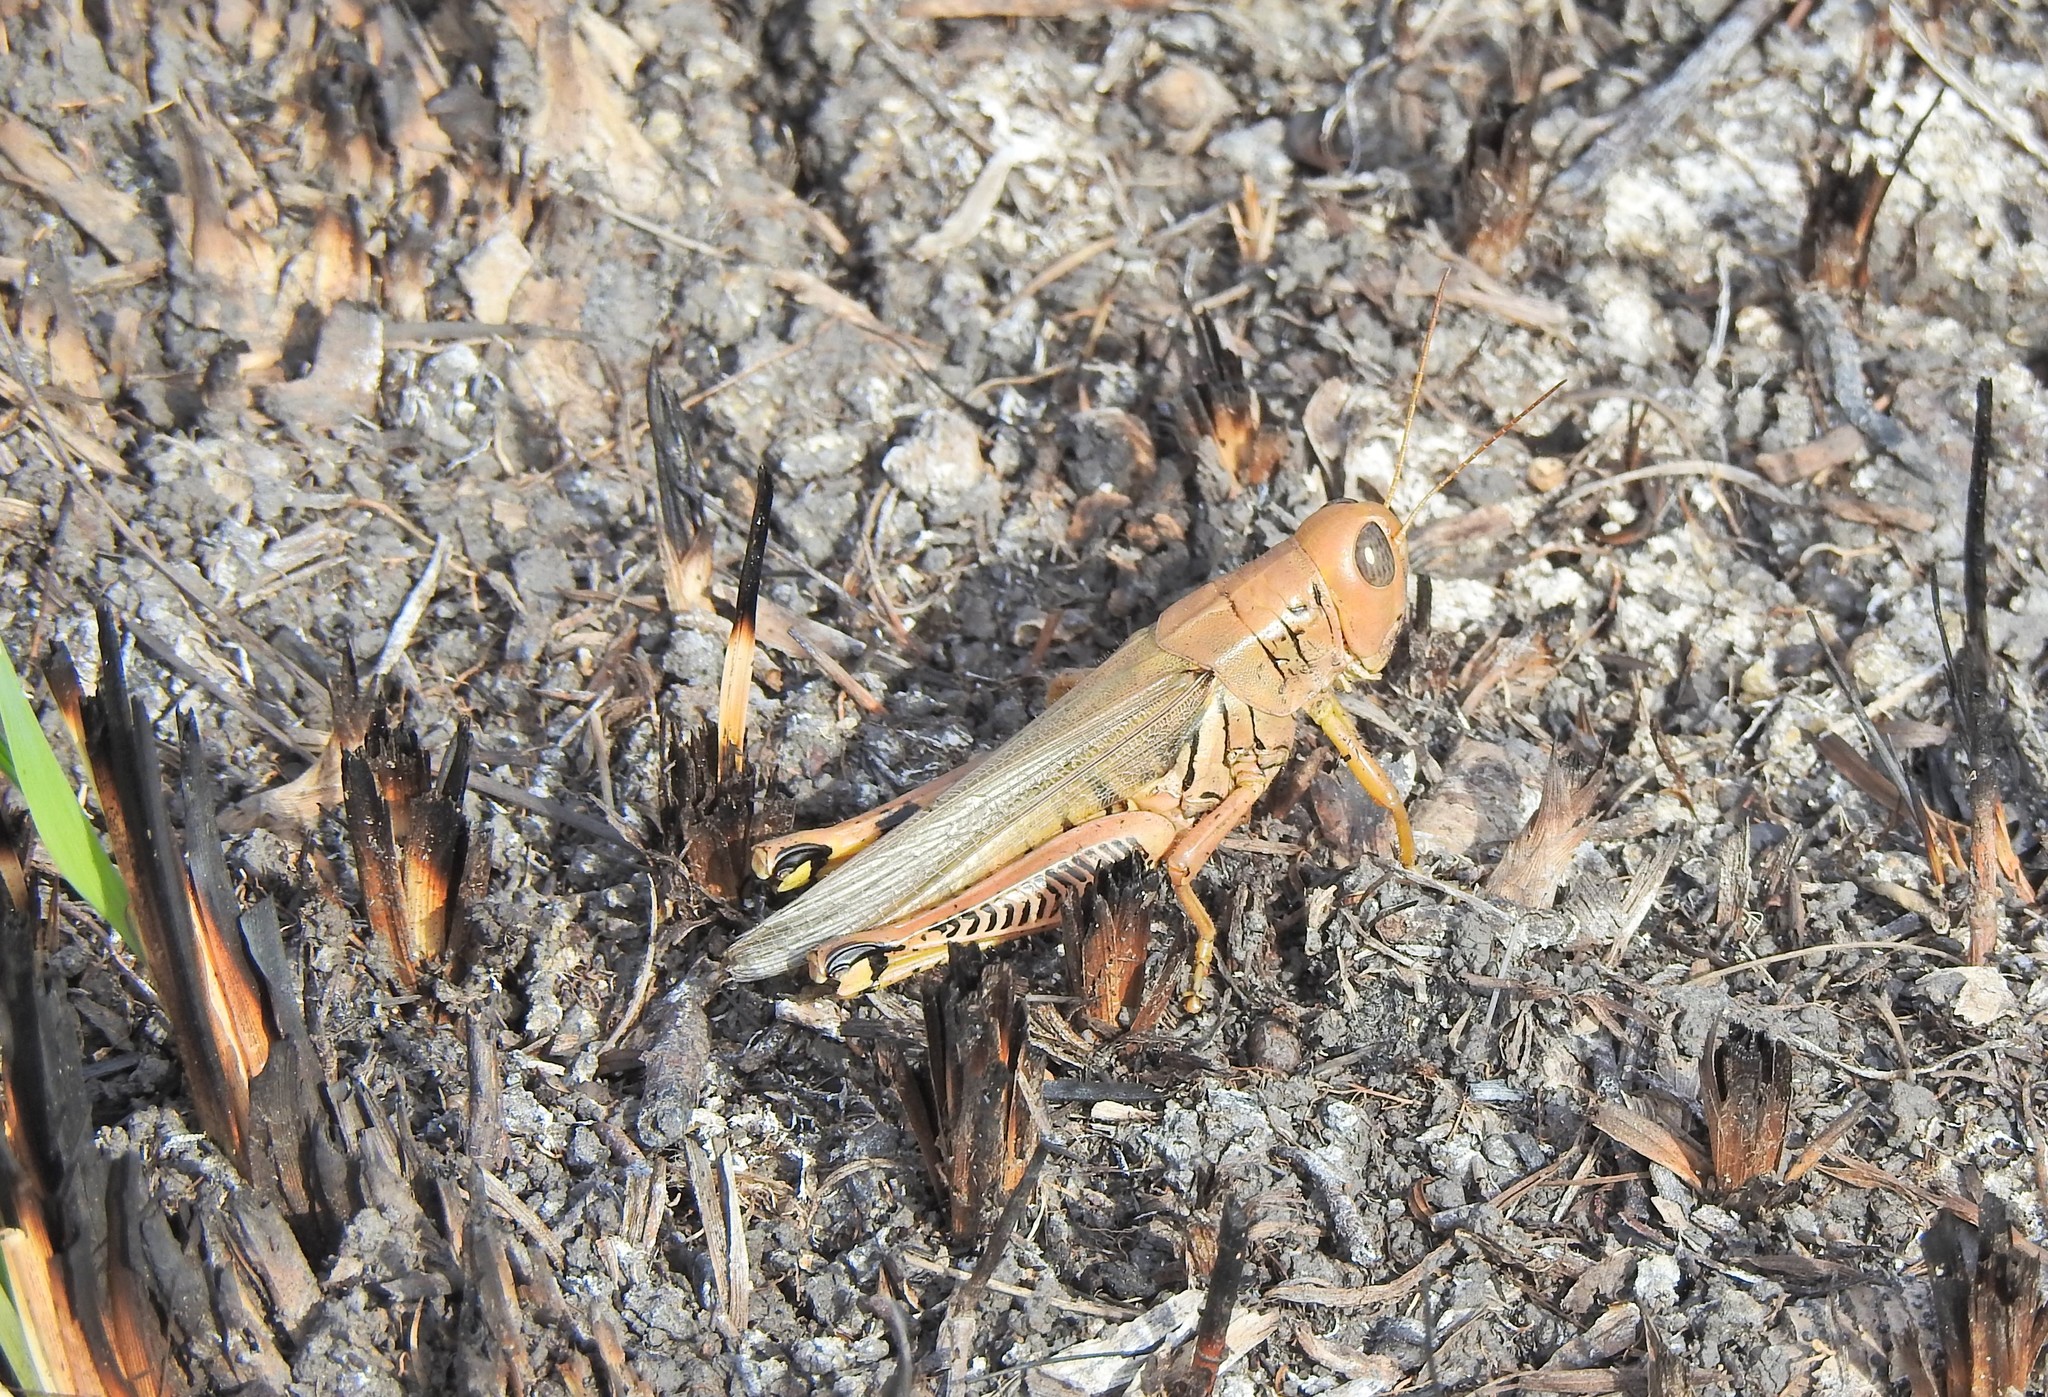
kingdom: Animalia
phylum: Arthropoda
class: Insecta
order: Orthoptera
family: Acrididae
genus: Melanoplus
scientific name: Melanoplus differentialis
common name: Differential grasshopper
